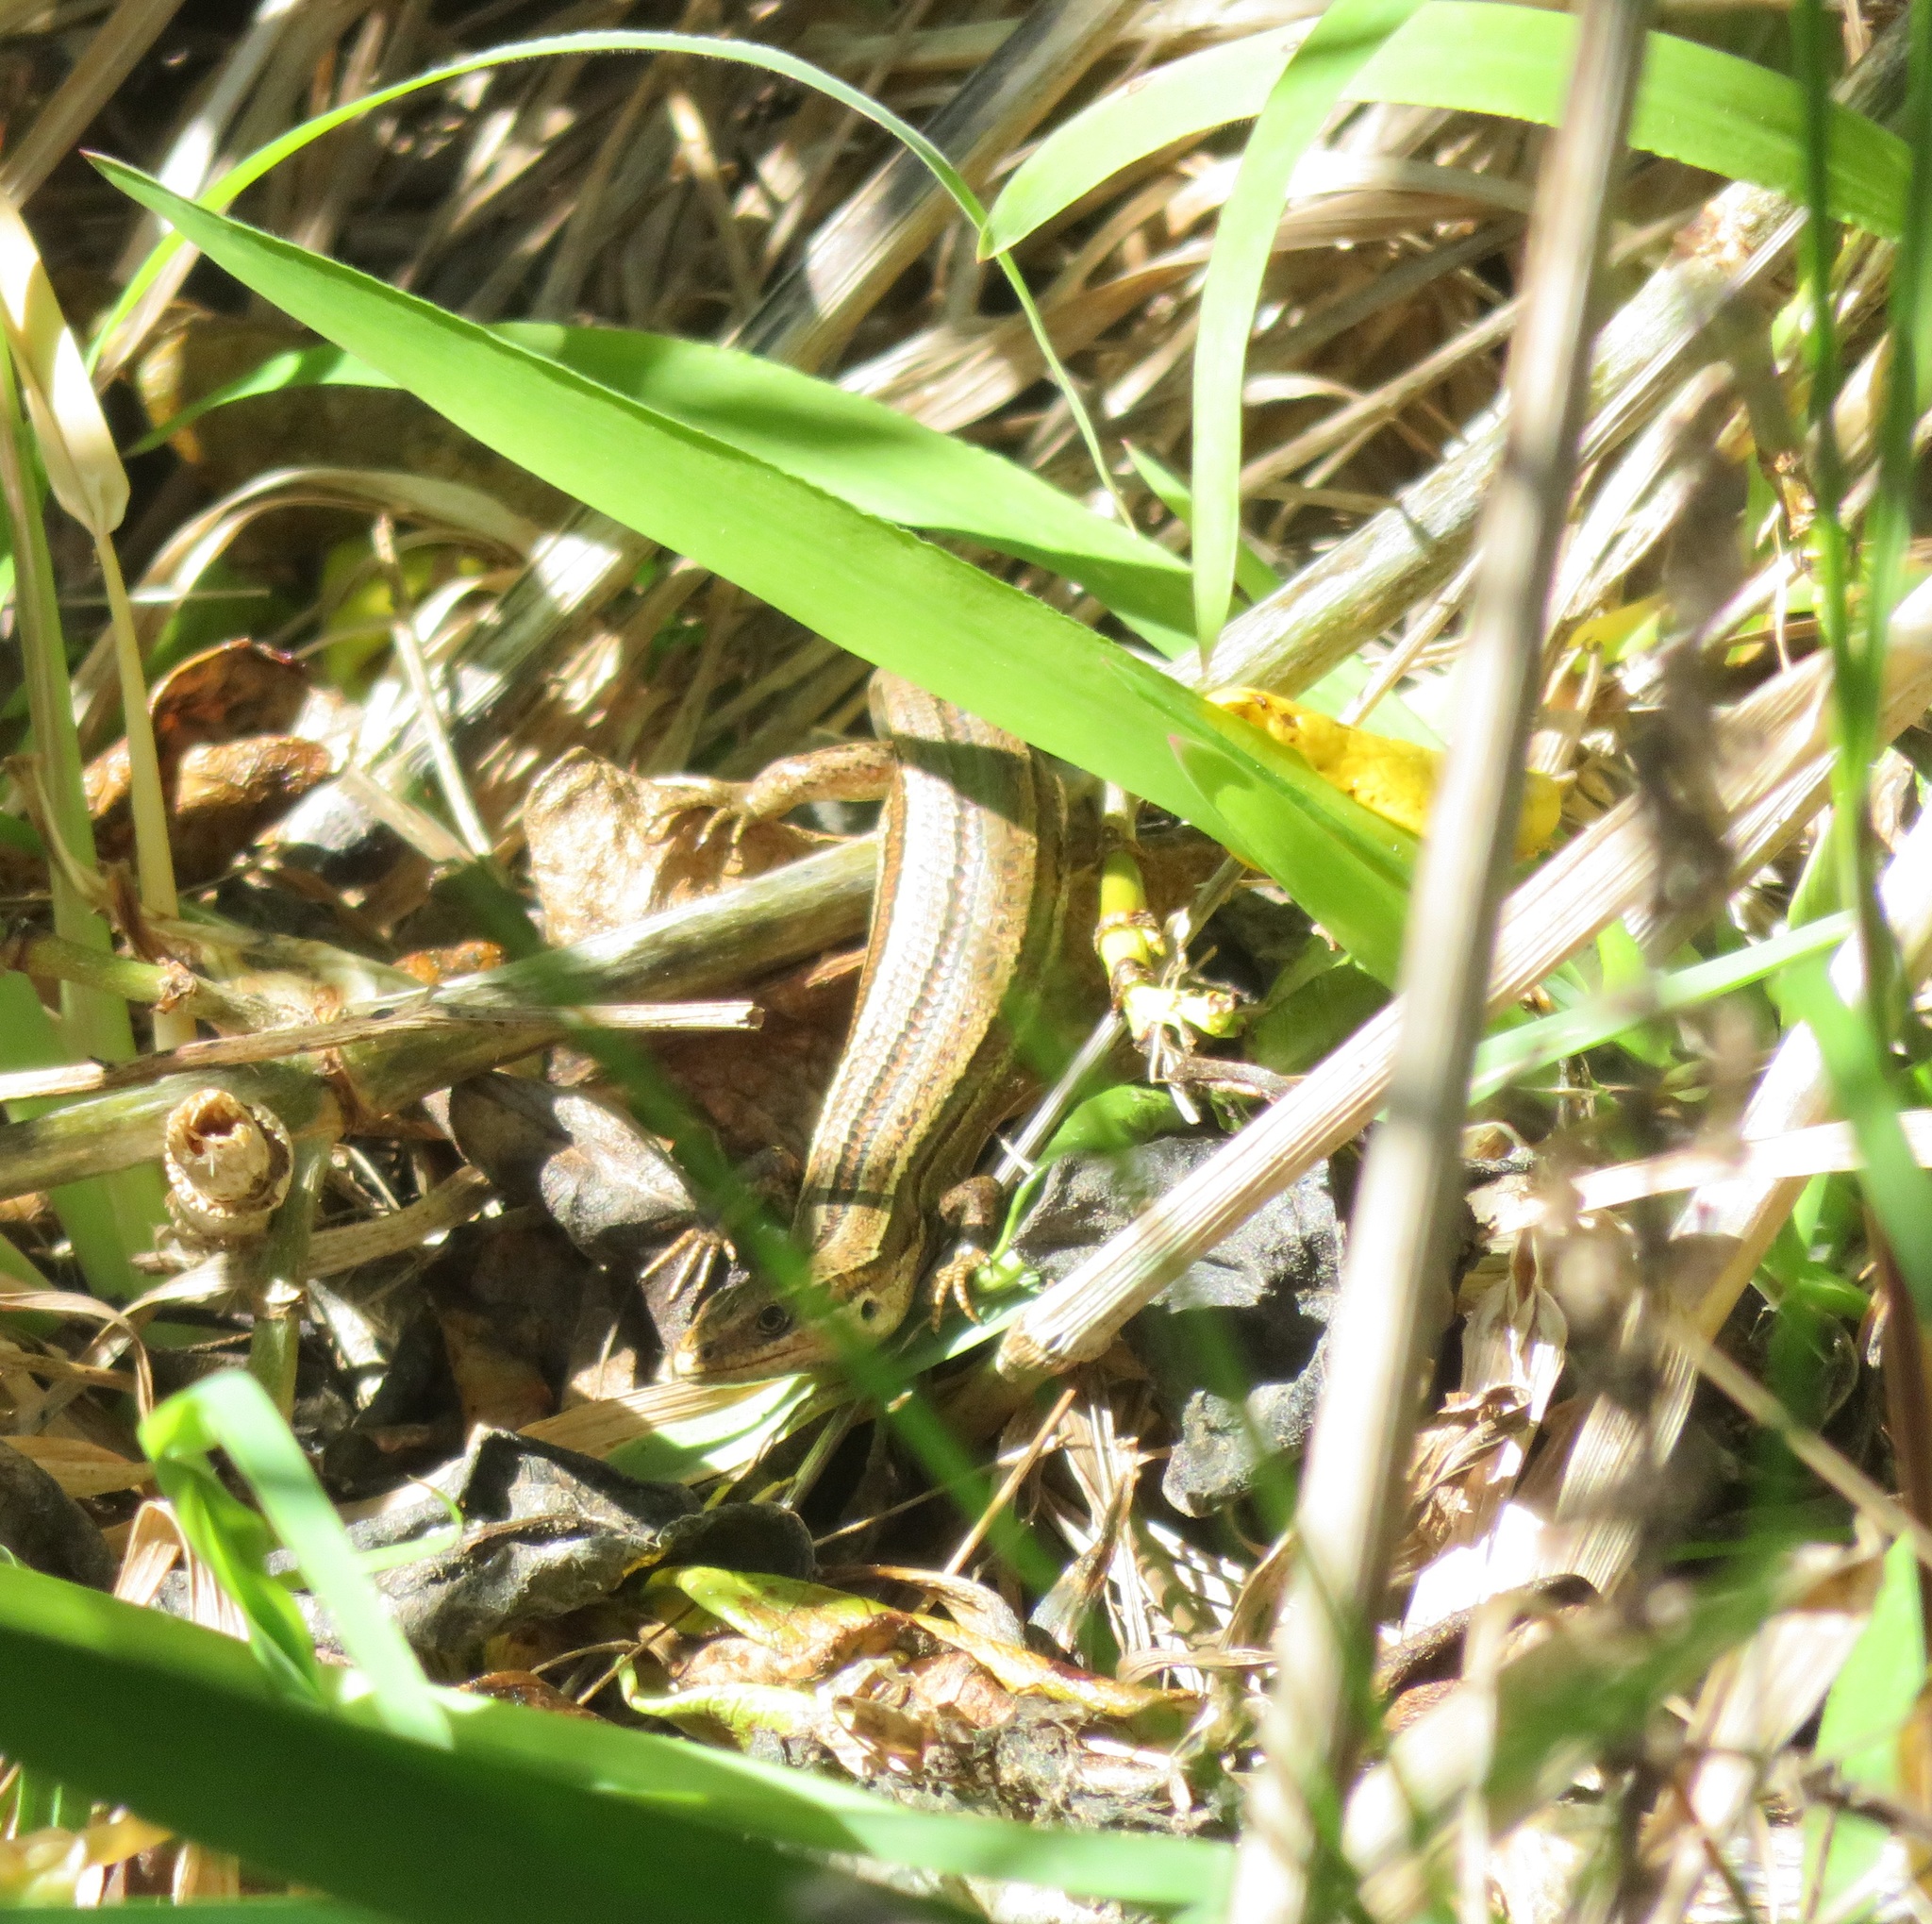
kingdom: Animalia
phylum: Chordata
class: Squamata
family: Scincidae
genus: Oligosoma
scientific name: Oligosoma polychroma
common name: Common new zealand skink
